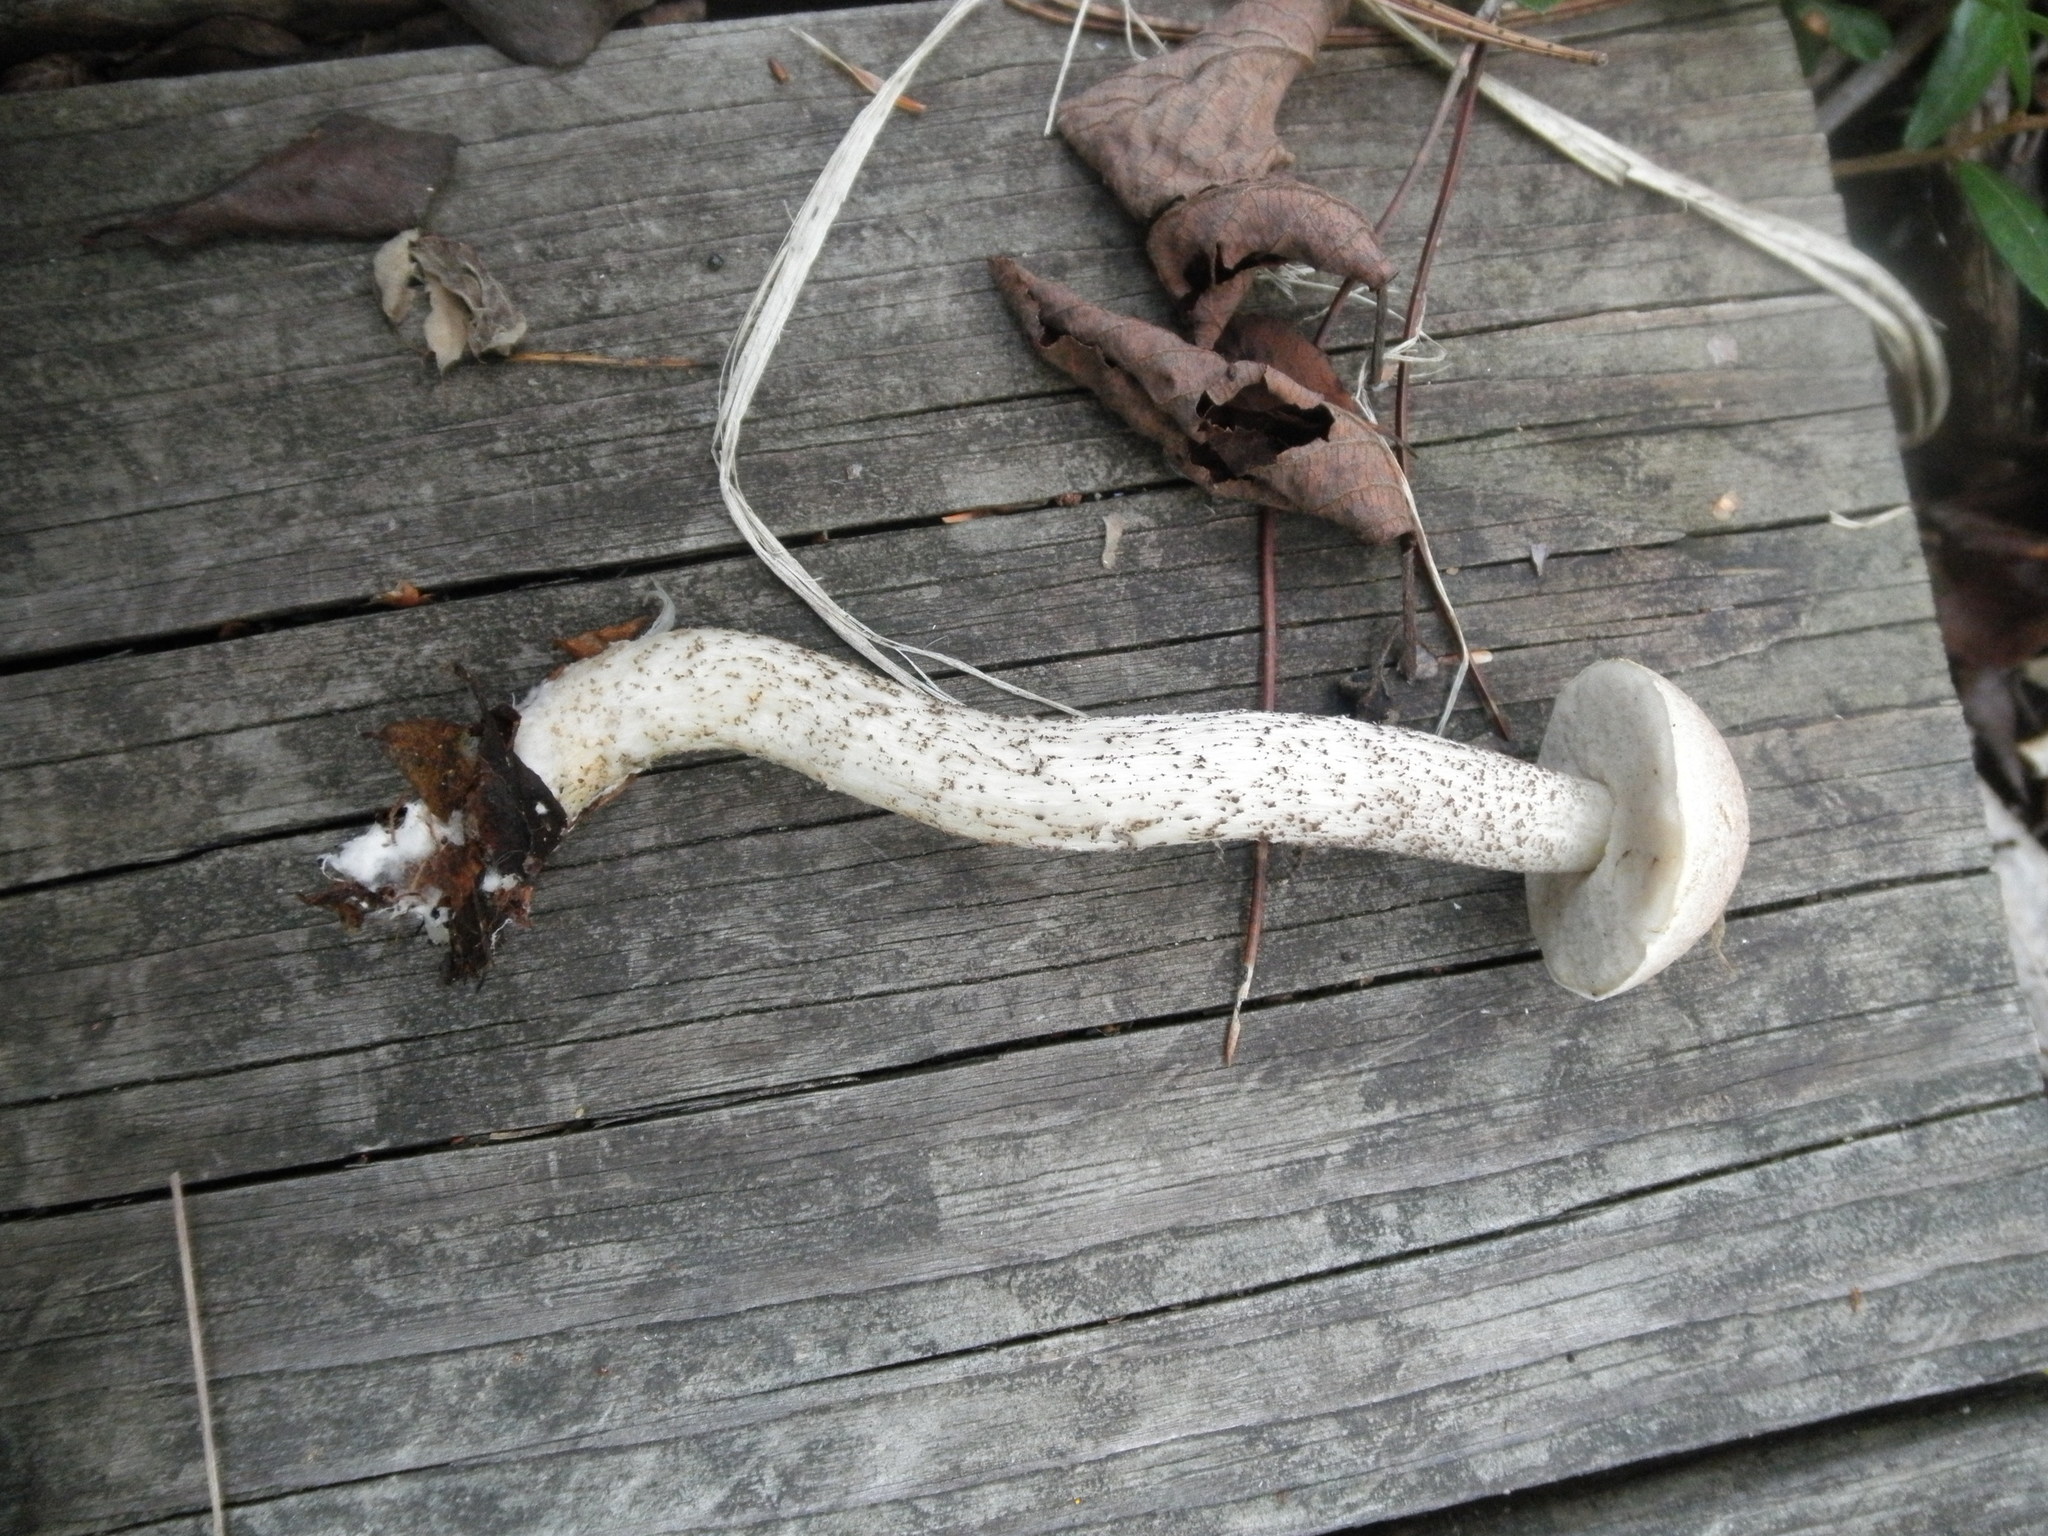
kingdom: Fungi
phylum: Basidiomycota
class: Agaricomycetes
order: Boletales
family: Boletaceae
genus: Leccinum
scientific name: Leccinum holopus
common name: Ghost bolete
